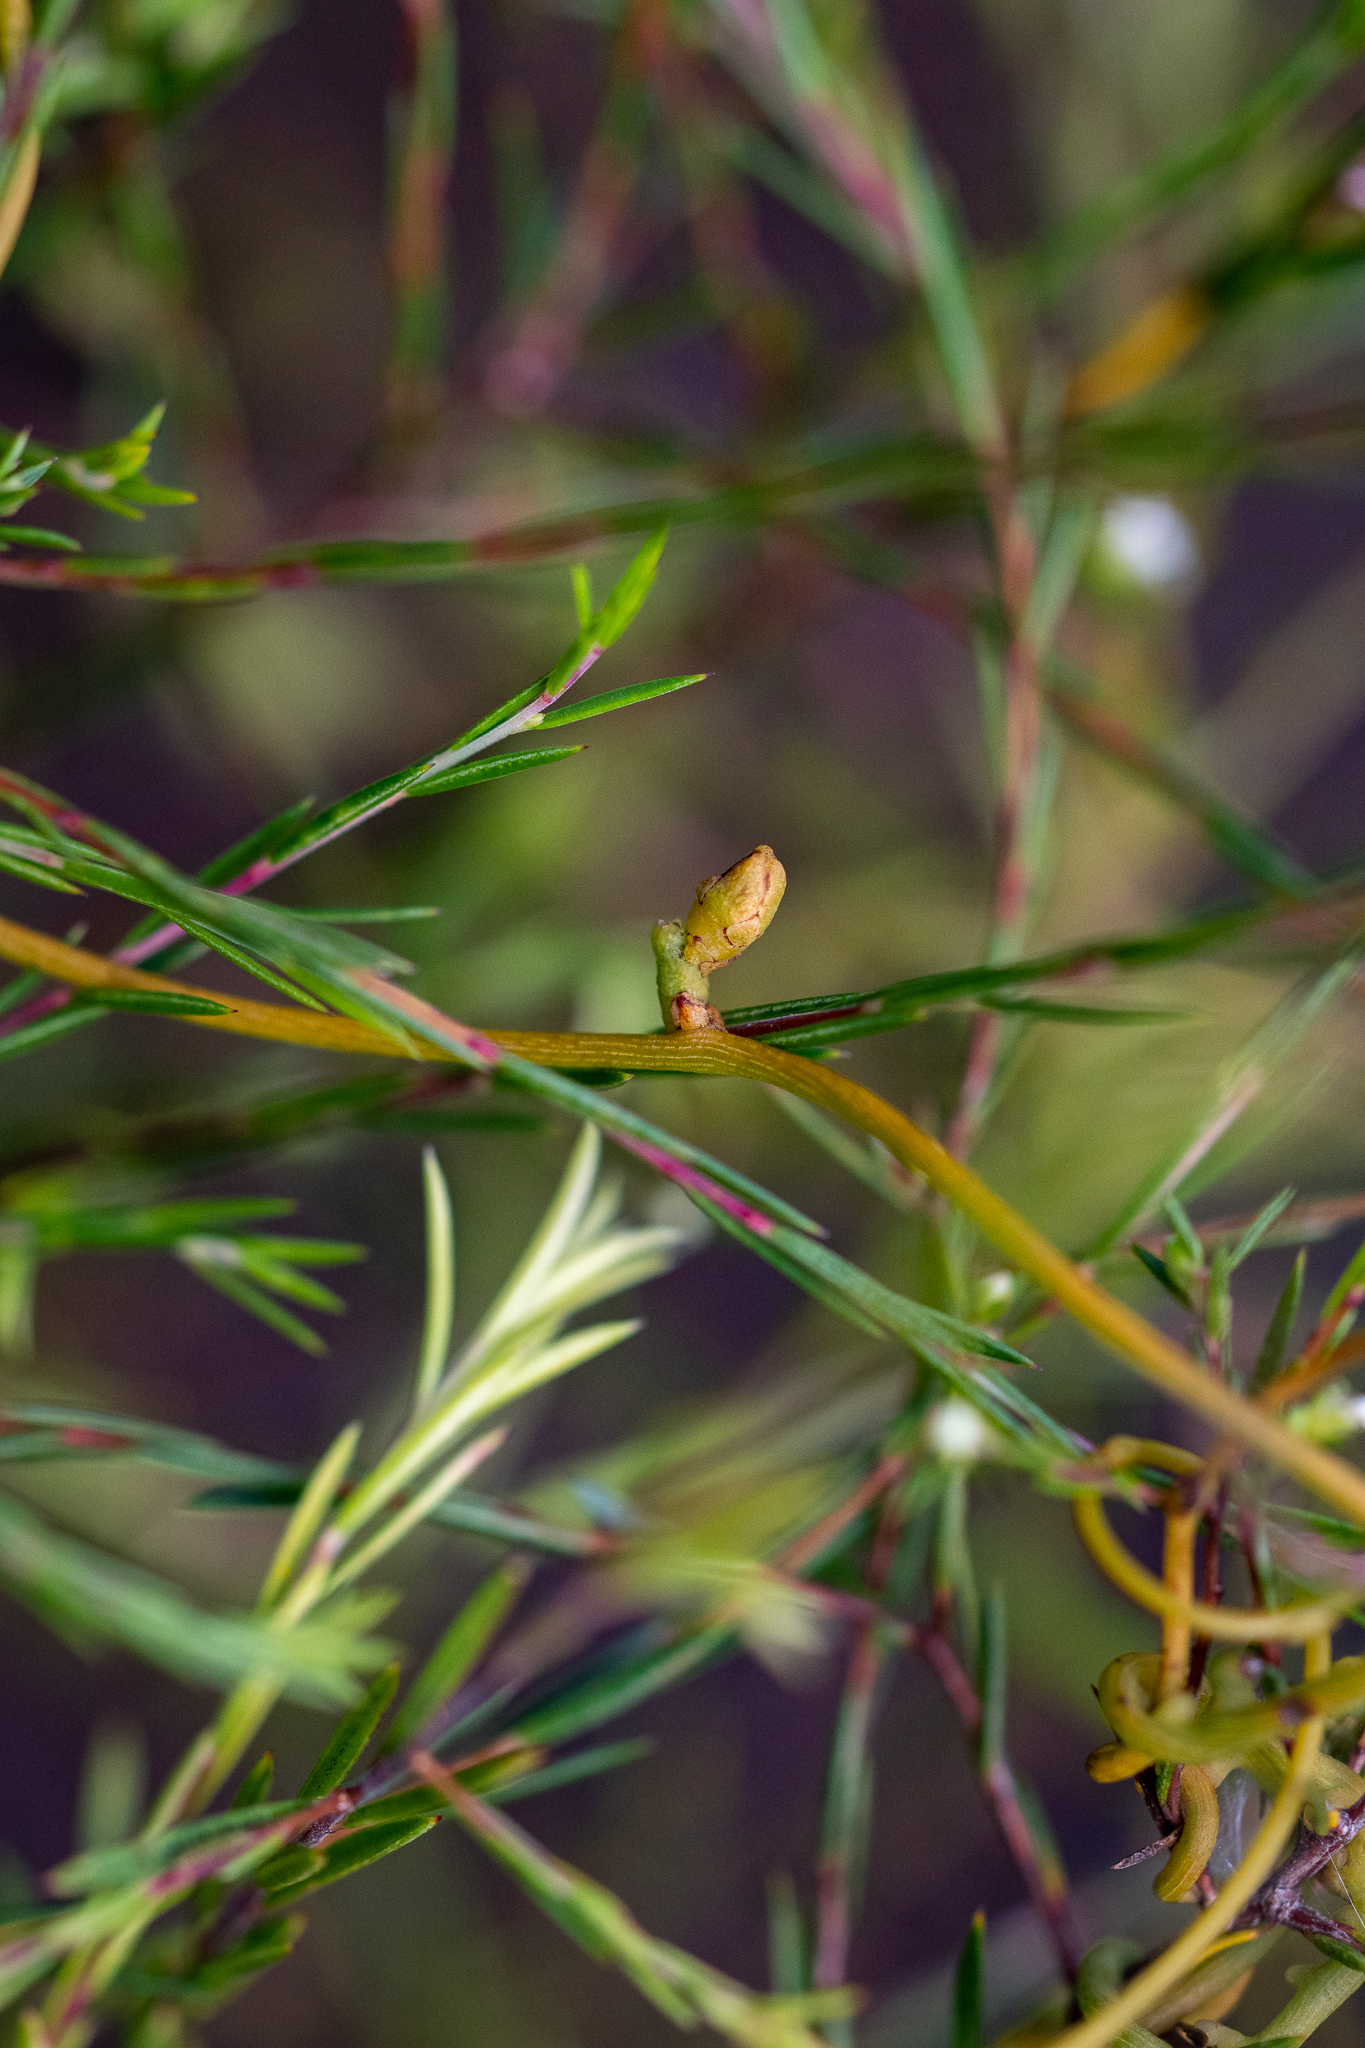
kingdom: Plantae
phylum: Tracheophyta
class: Magnoliopsida
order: Laurales
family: Lauraceae
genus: Cassytha
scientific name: Cassytha ciliolata
